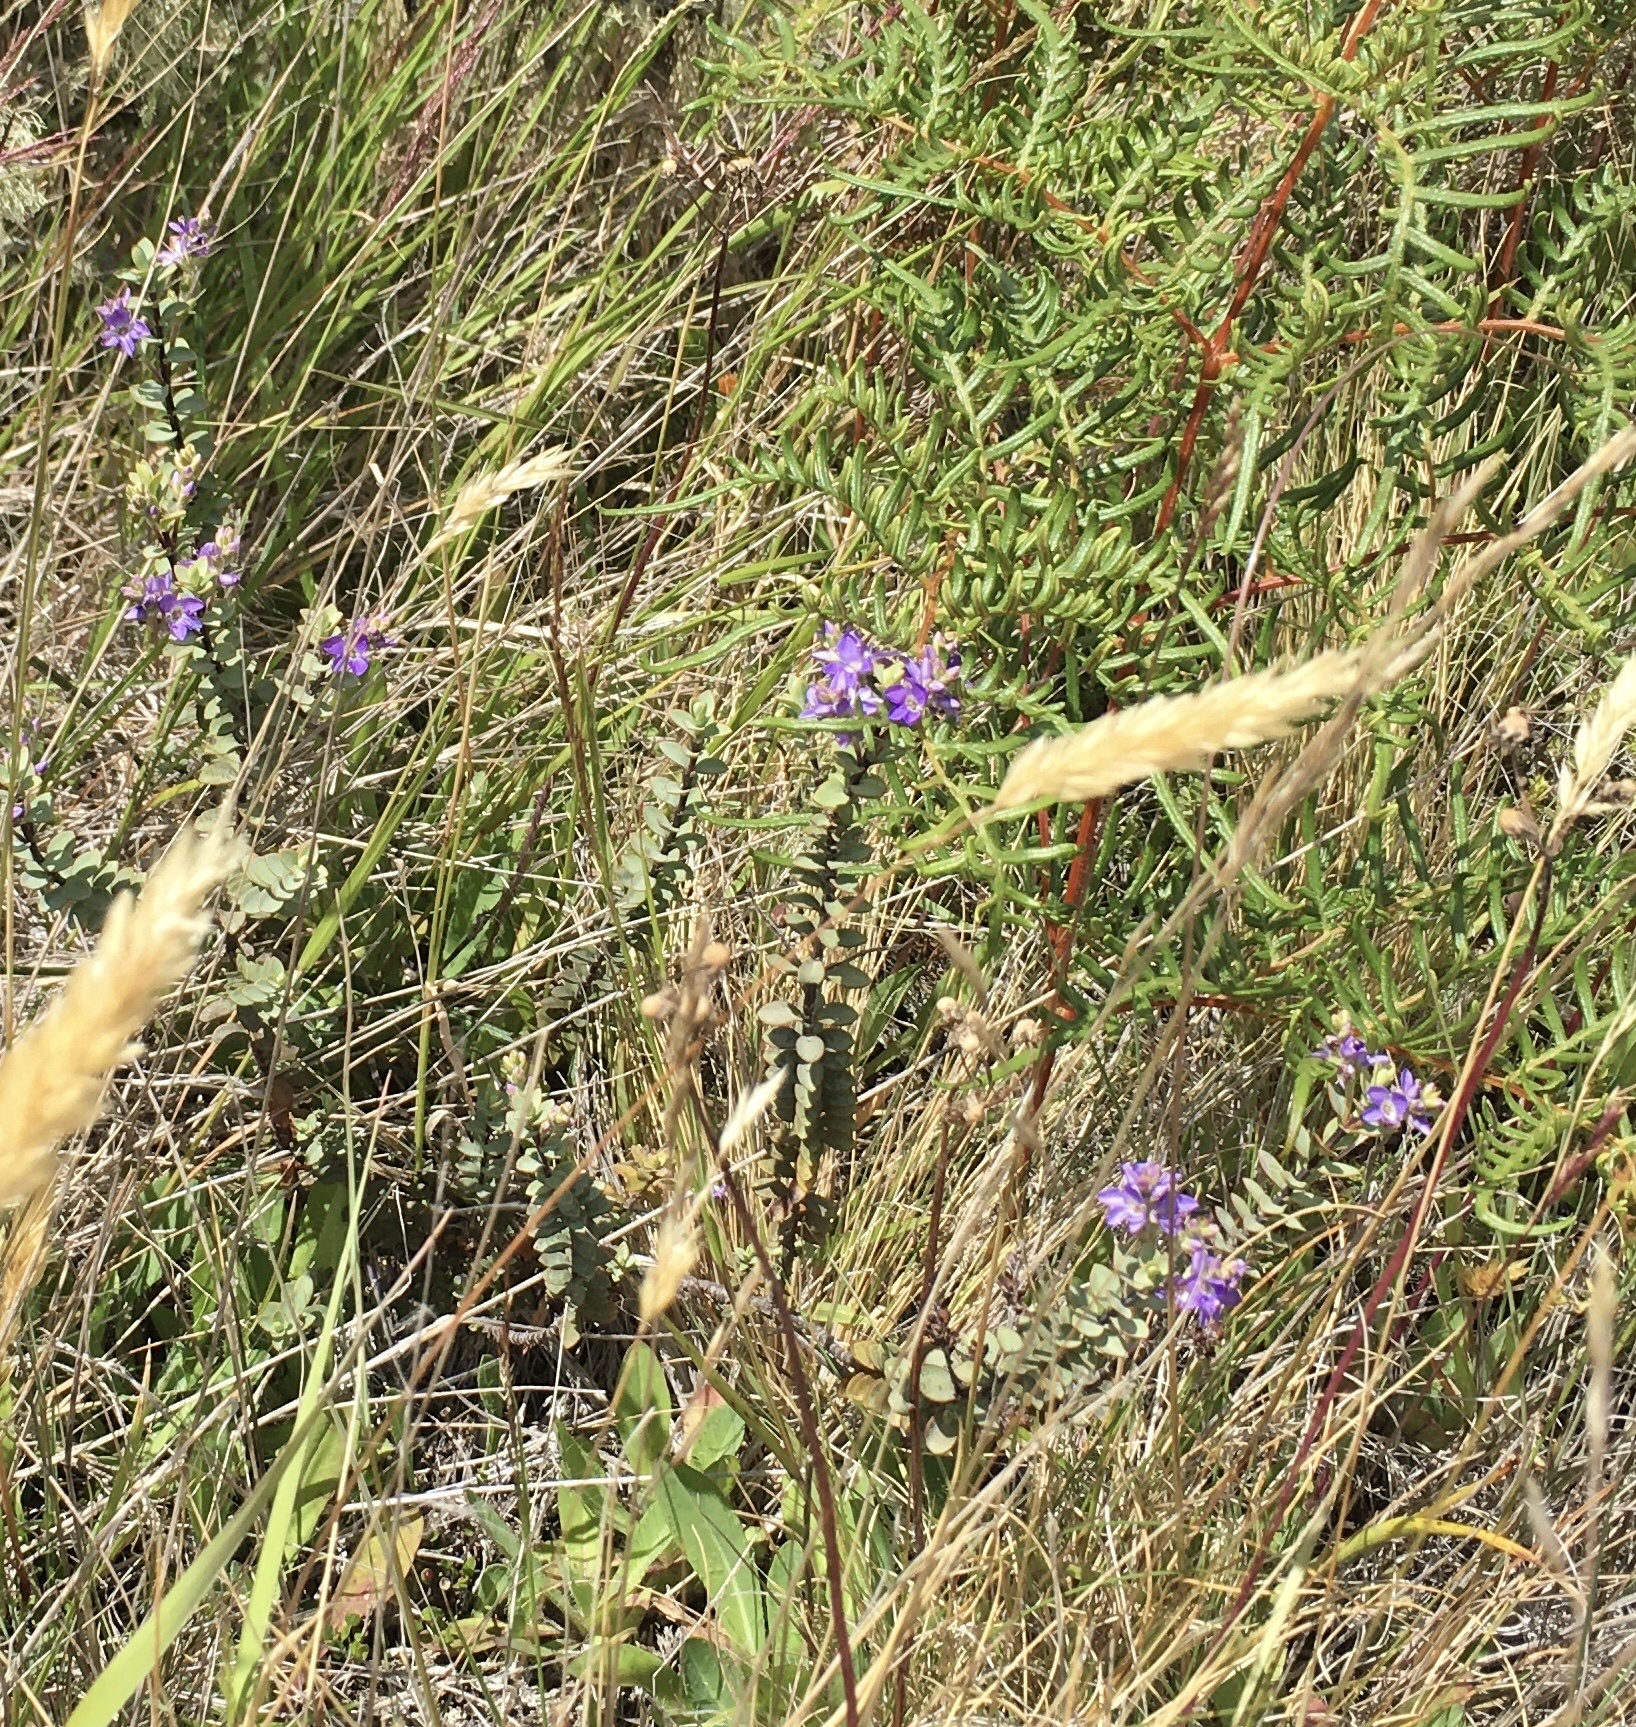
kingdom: Plantae
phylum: Tracheophyta
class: Magnoliopsida
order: Lamiales
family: Plantaginaceae
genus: Veronica
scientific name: Veronica pimeleoides
